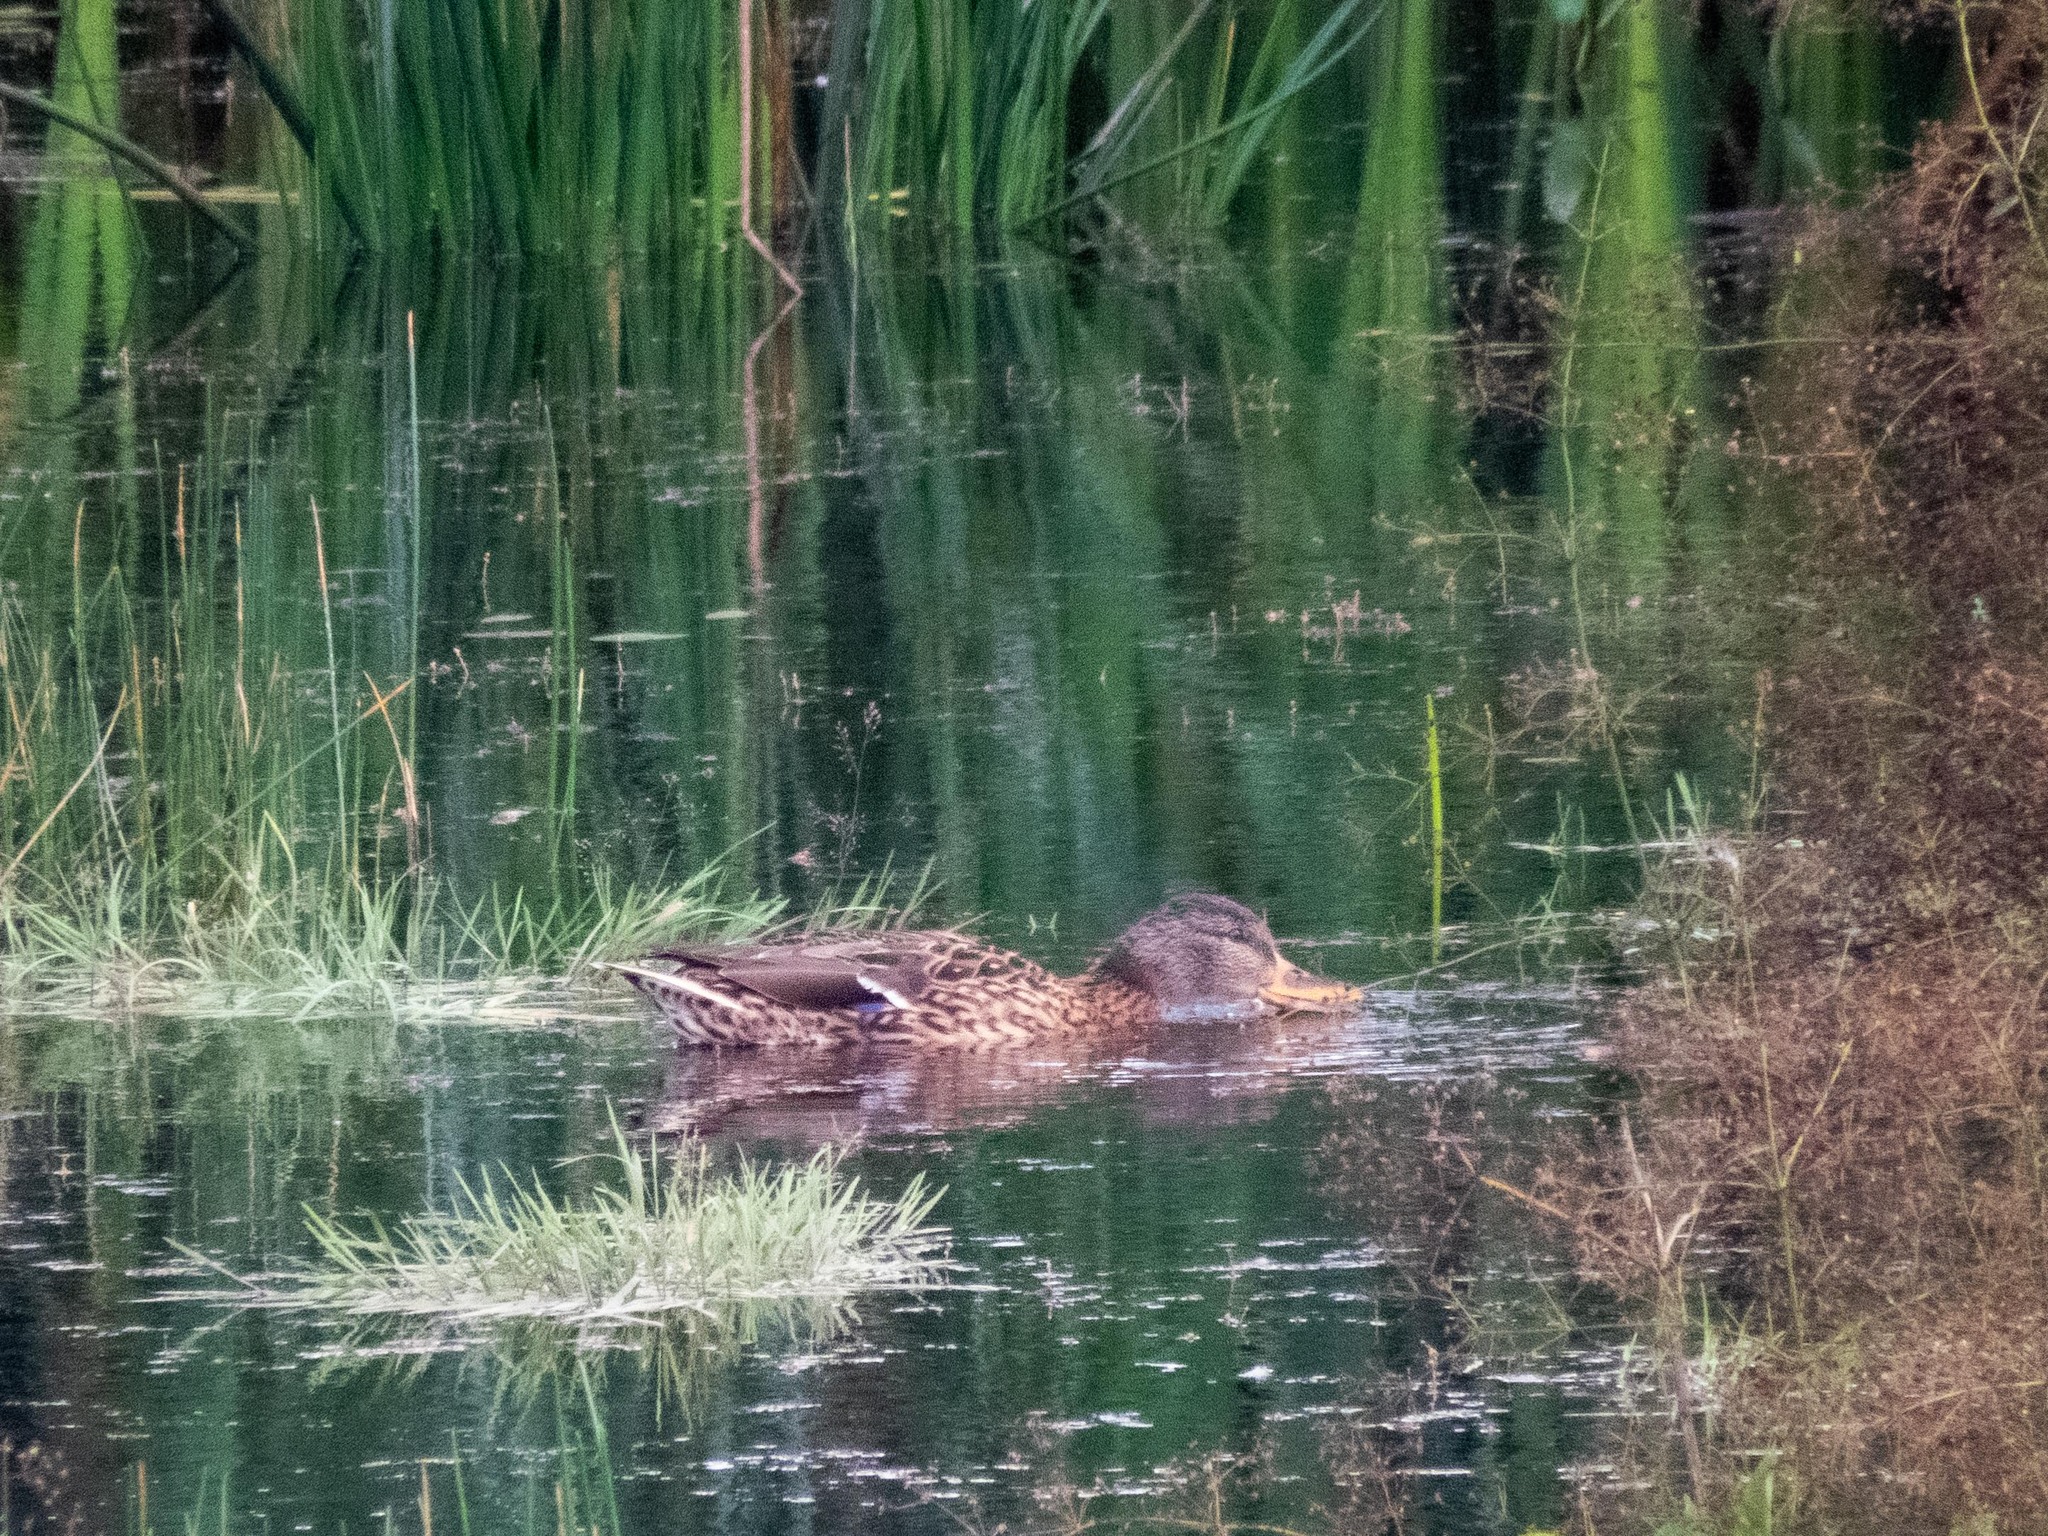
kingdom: Animalia
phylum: Chordata
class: Aves
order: Anseriformes
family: Anatidae
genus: Anas
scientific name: Anas platyrhynchos
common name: Mallard
